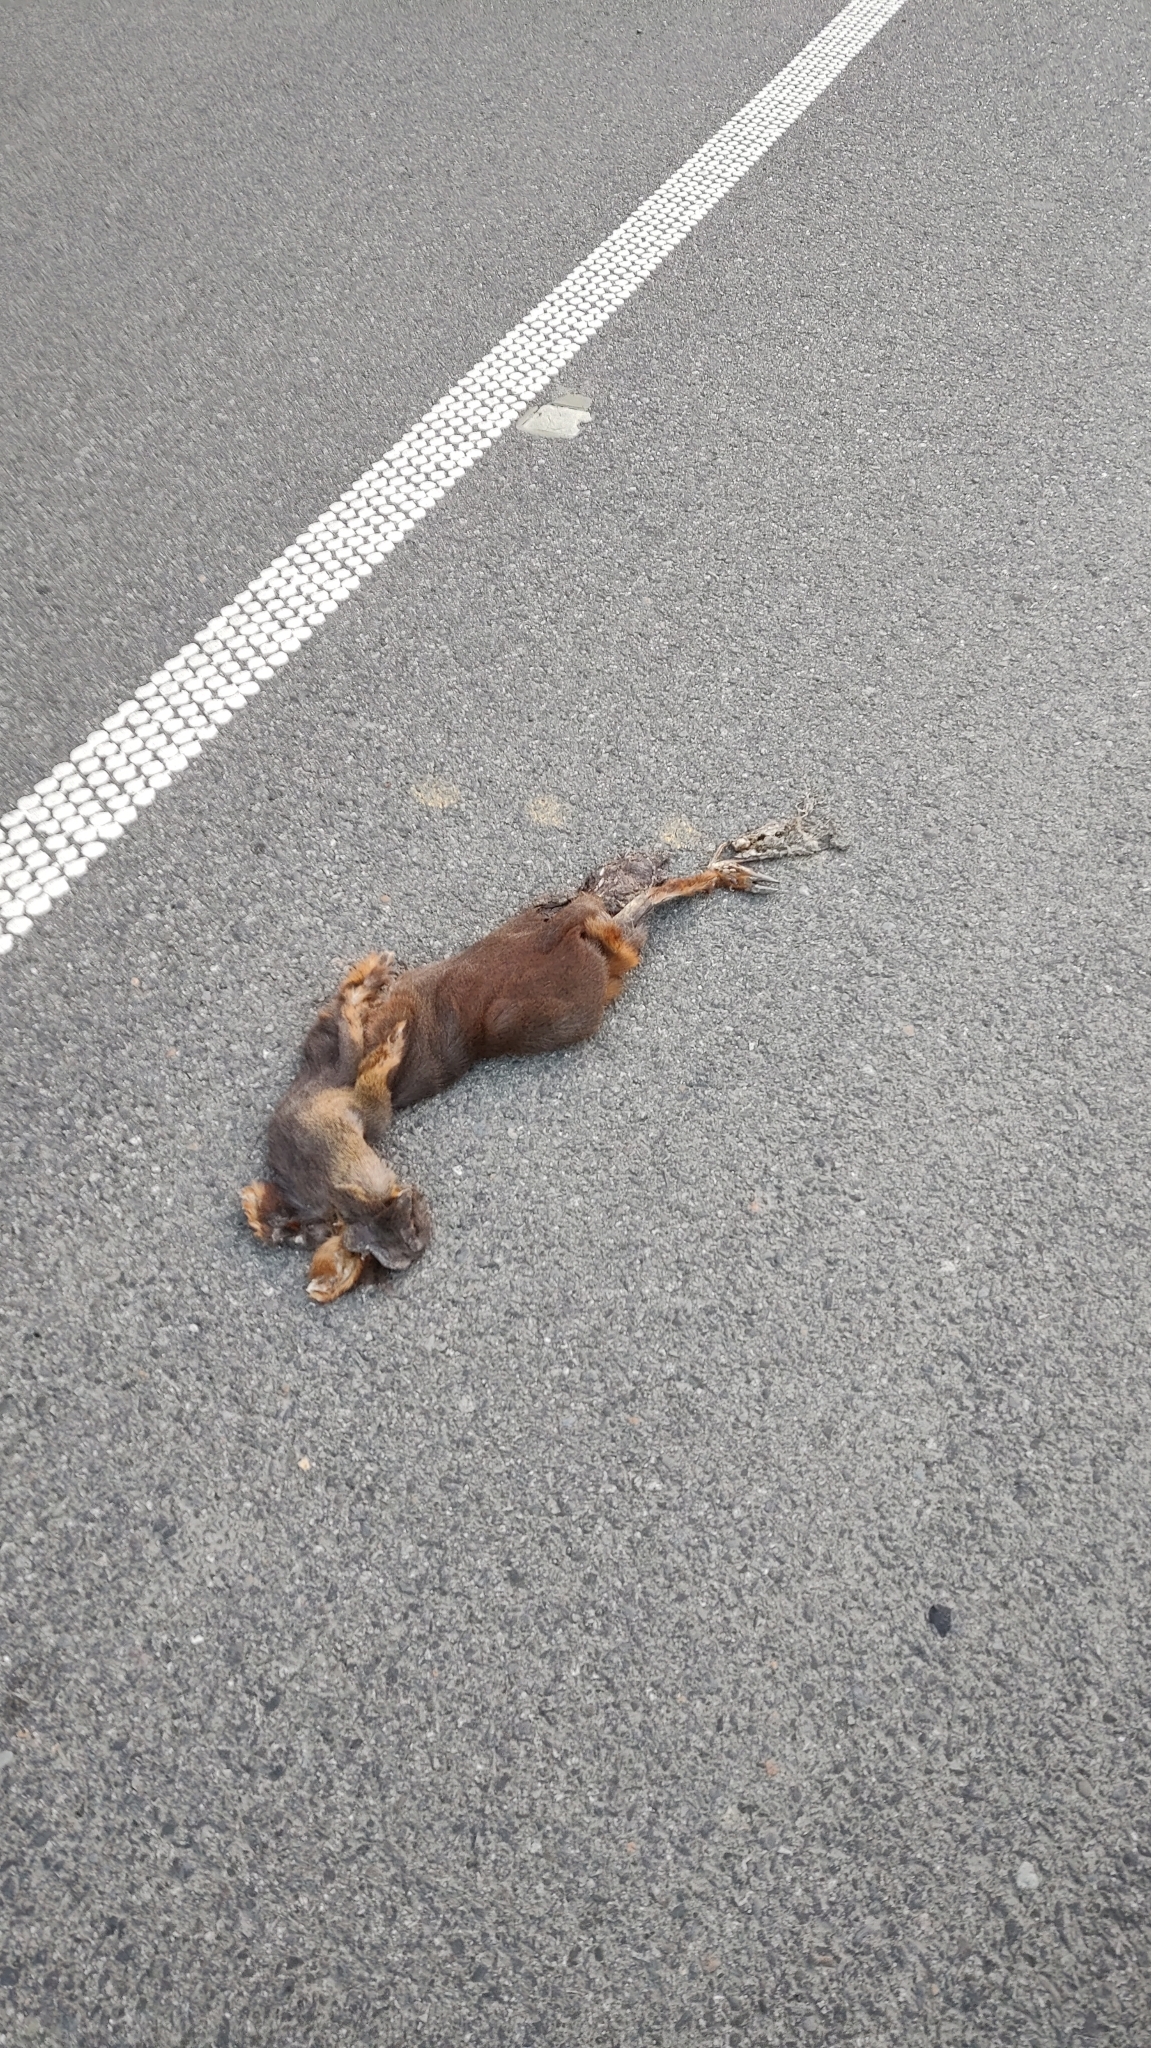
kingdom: Animalia
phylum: Chordata
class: Mammalia
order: Artiodactyla
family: Cervidae
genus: Pudu
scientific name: Pudu puda
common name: Southern pudu
